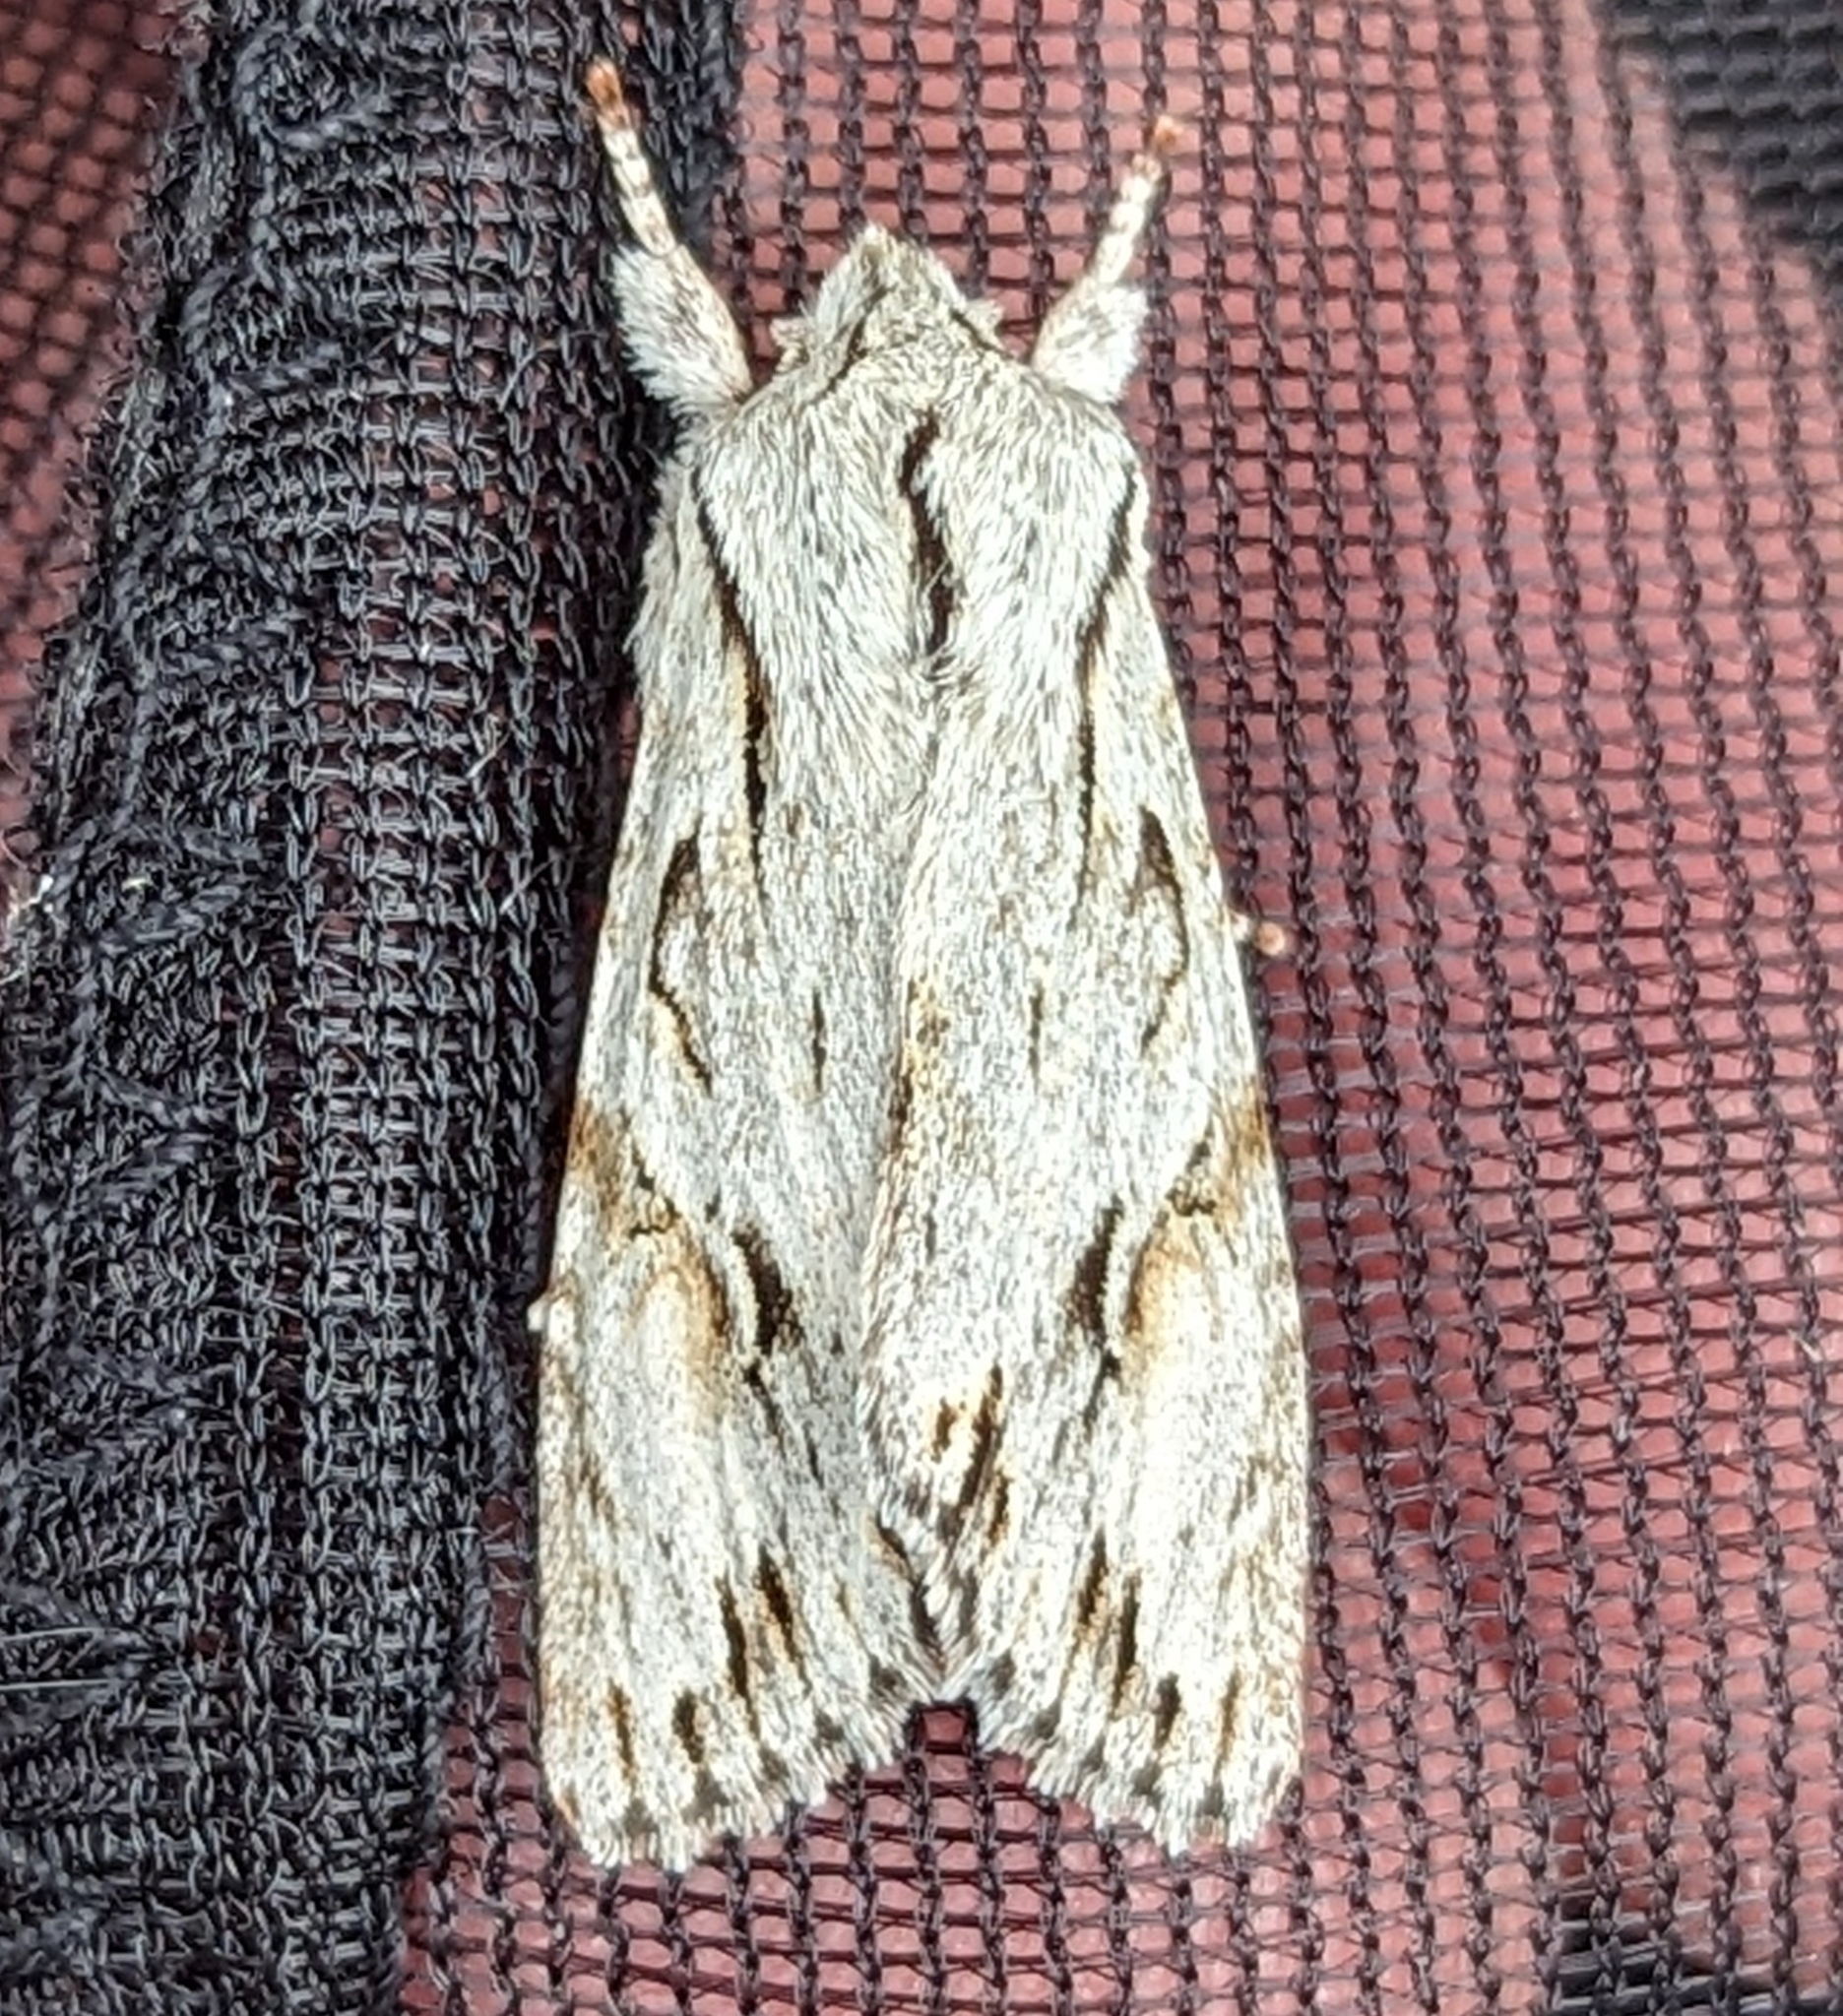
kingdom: Animalia
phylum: Arthropoda
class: Insecta
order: Lepidoptera
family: Noctuidae
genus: Egira
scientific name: Egira crucialis
